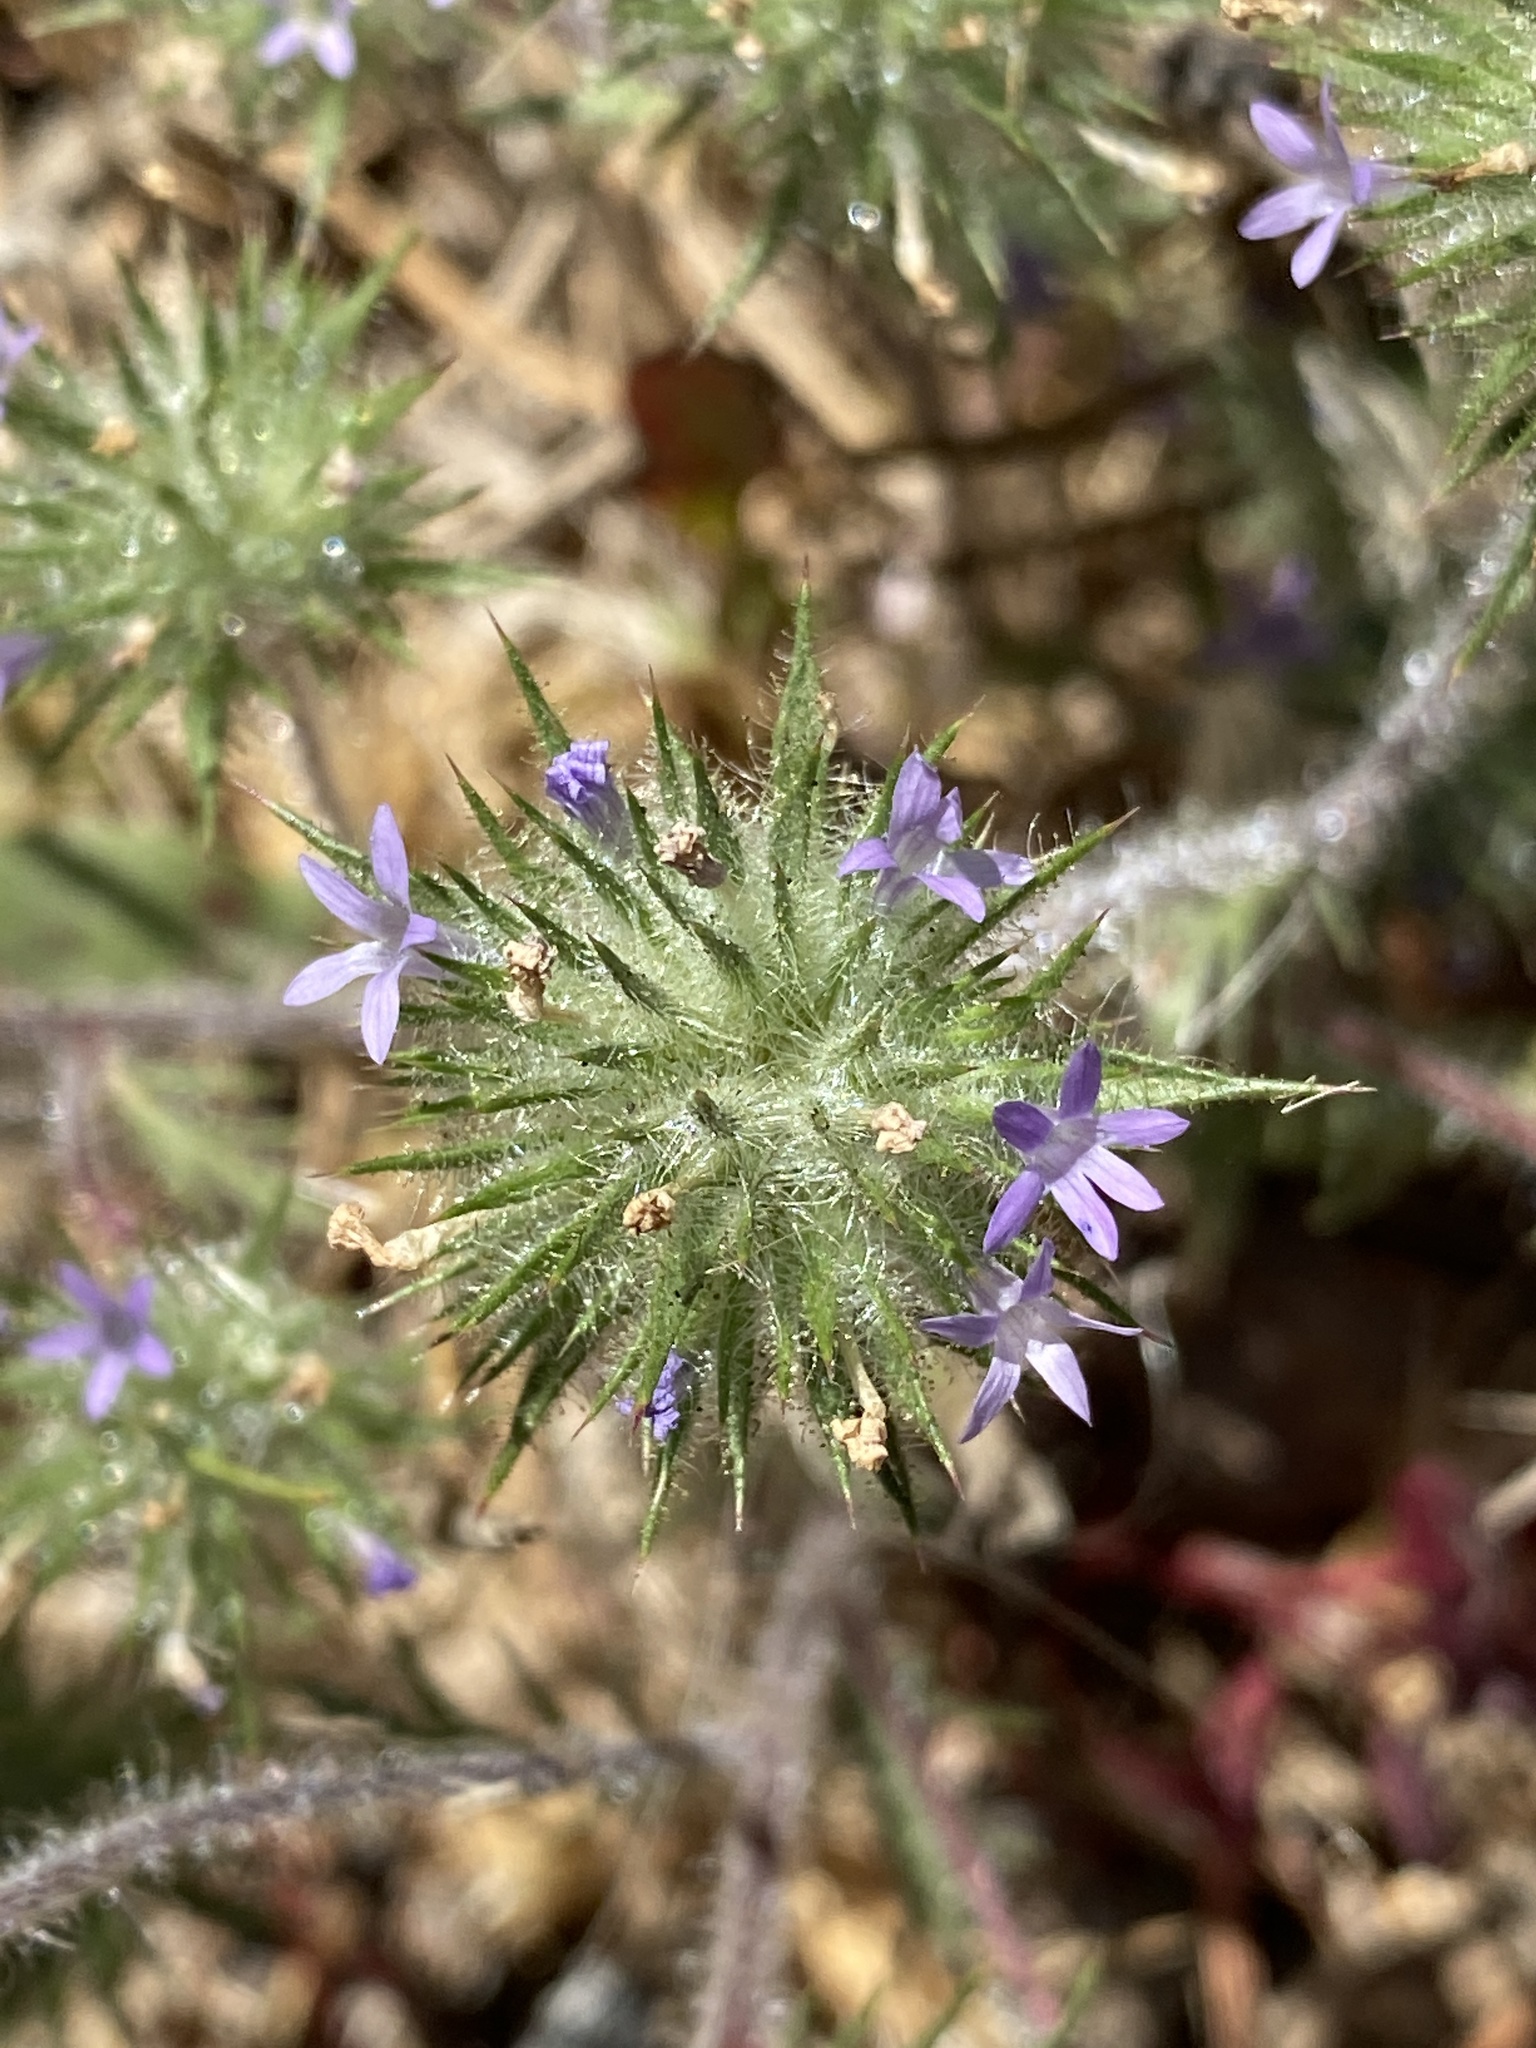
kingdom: Plantae
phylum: Tracheophyta
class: Magnoliopsida
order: Ericales
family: Polemoniaceae
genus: Navarretia
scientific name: Navarretia squarrosa
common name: Skunkweed
